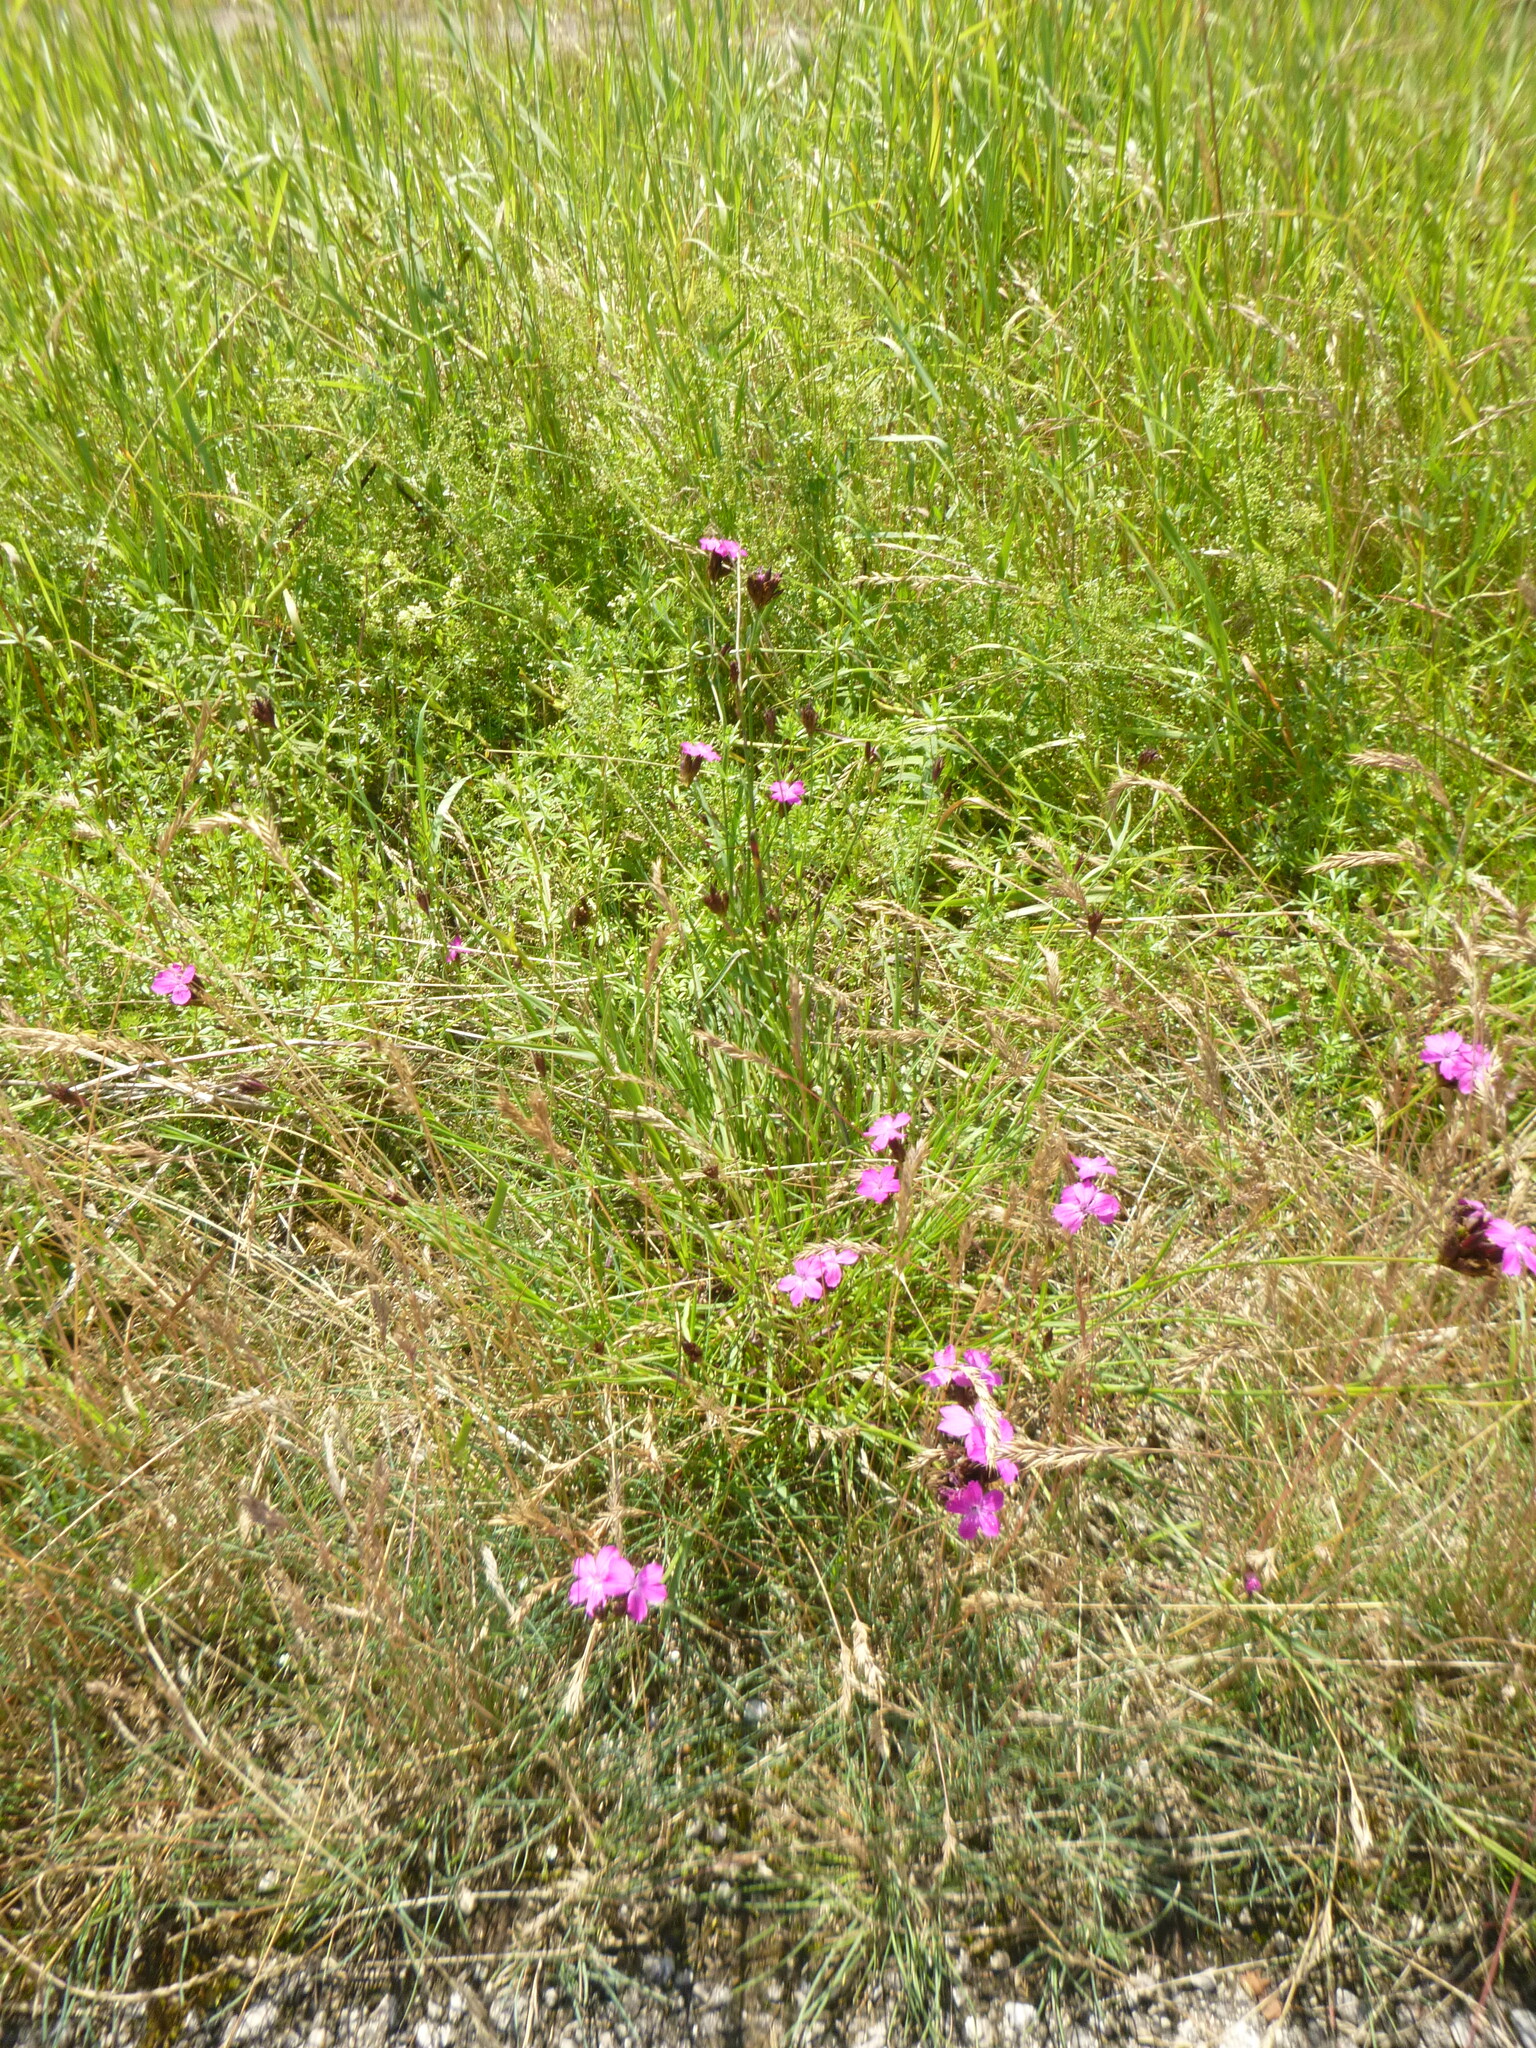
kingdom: Plantae
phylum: Tracheophyta
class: Magnoliopsida
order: Caryophyllales
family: Caryophyllaceae
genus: Dianthus
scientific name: Dianthus carthusianorum
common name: Carthusian pink
